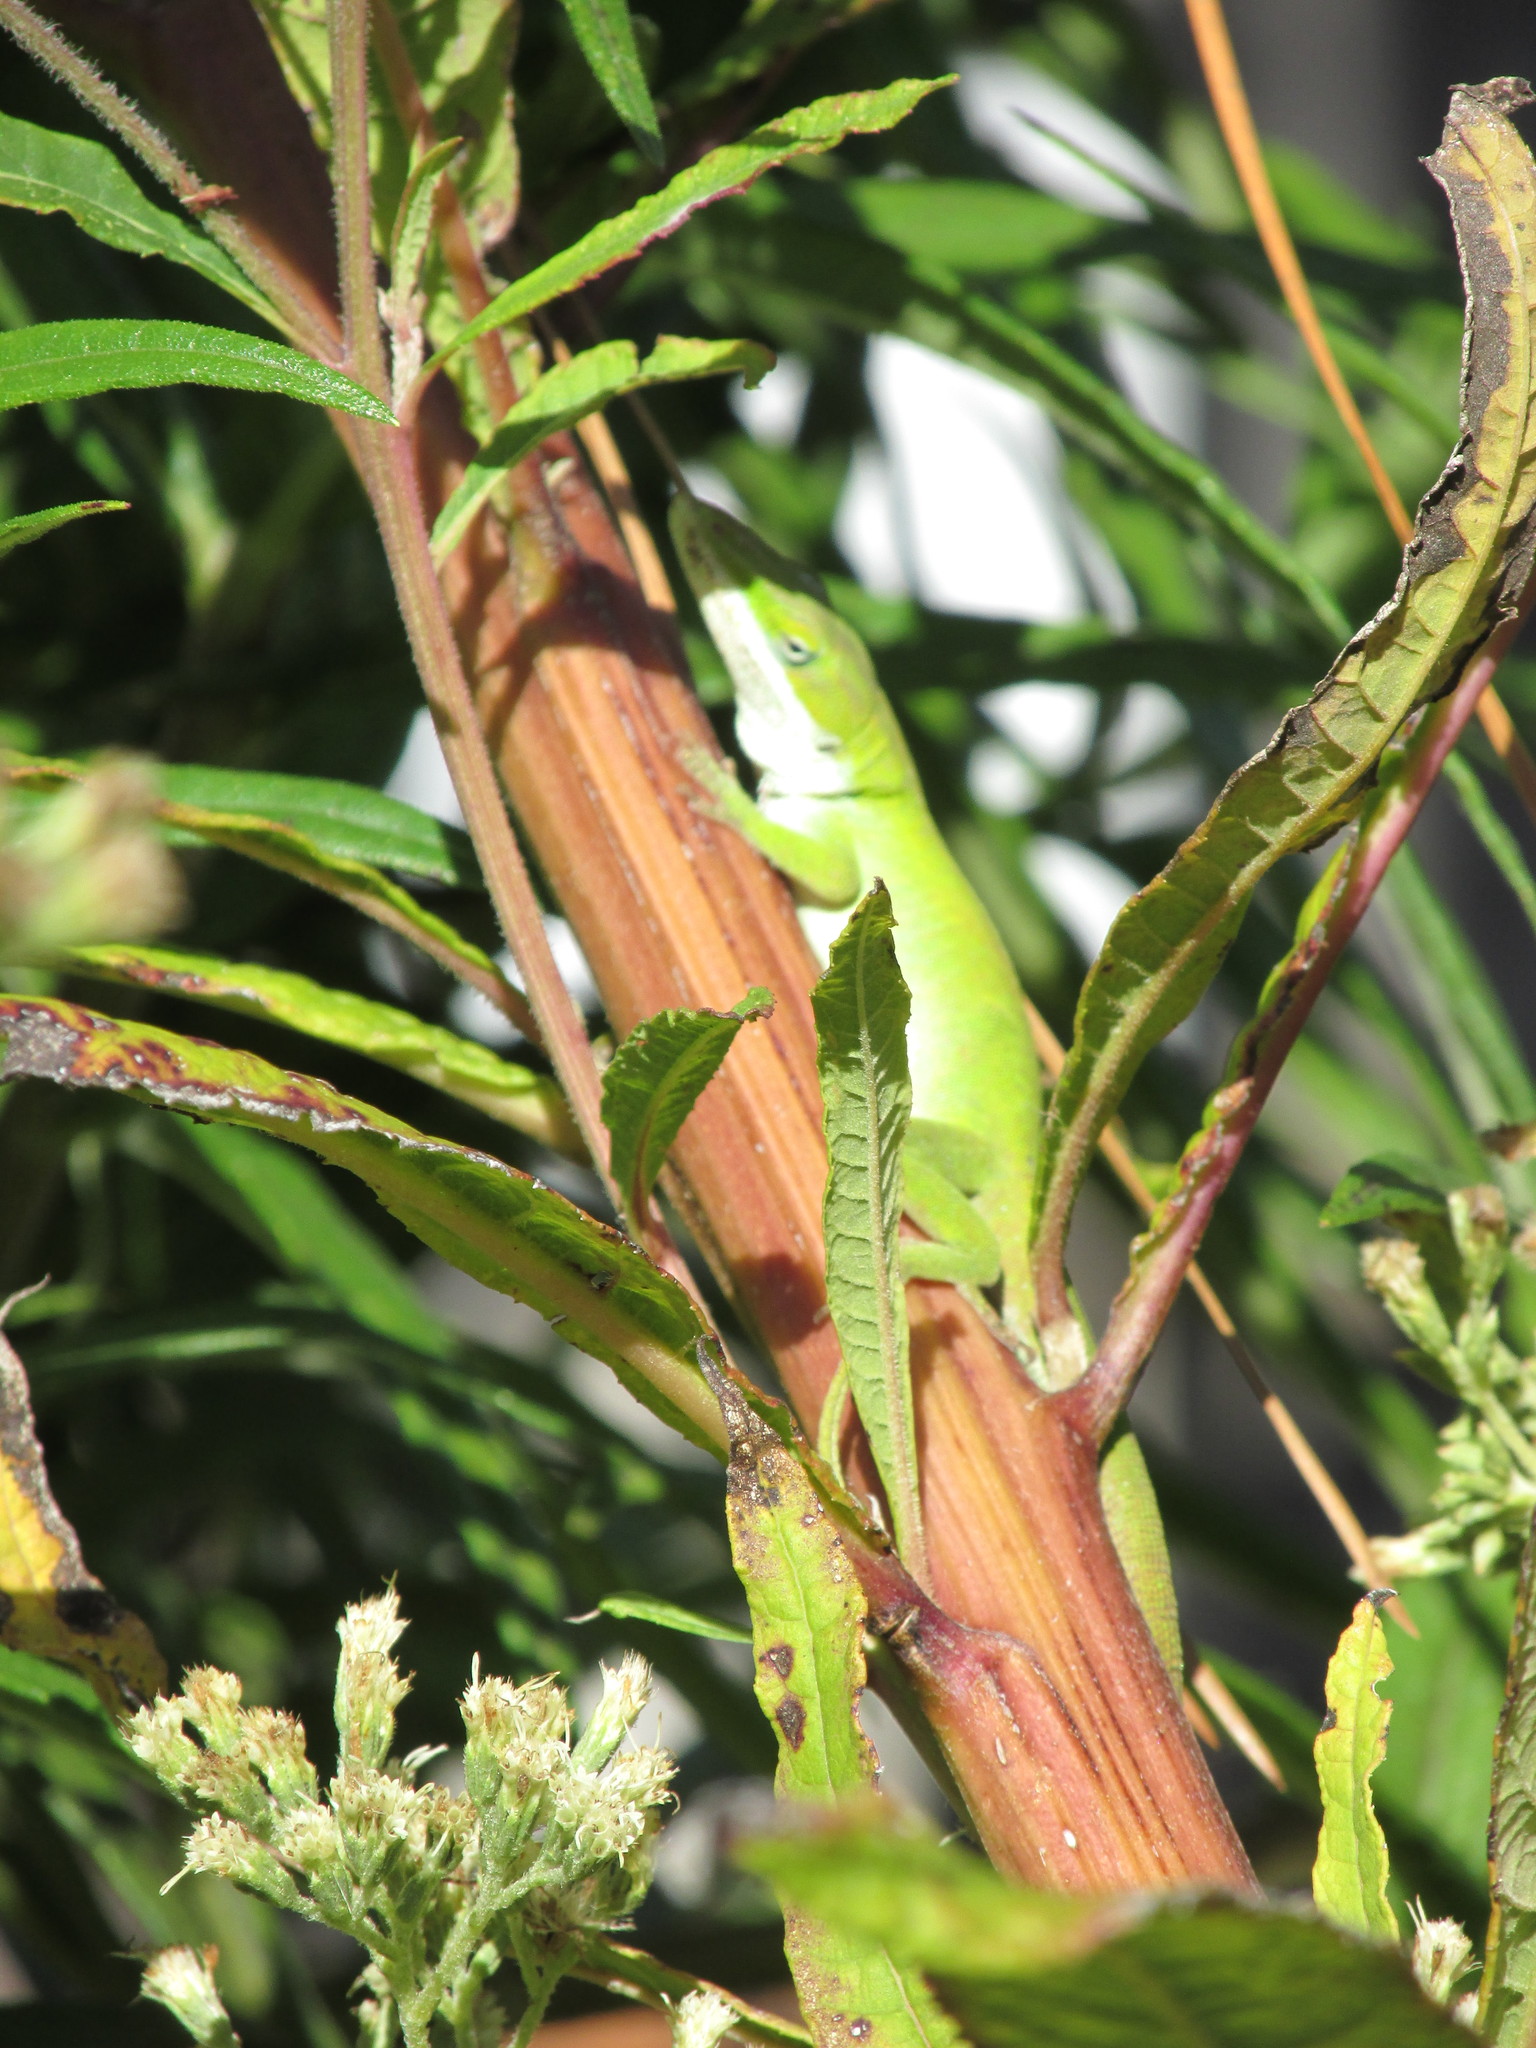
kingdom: Animalia
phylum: Chordata
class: Squamata
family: Dactyloidae
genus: Anolis
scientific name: Anolis carolinensis
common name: Green anole
